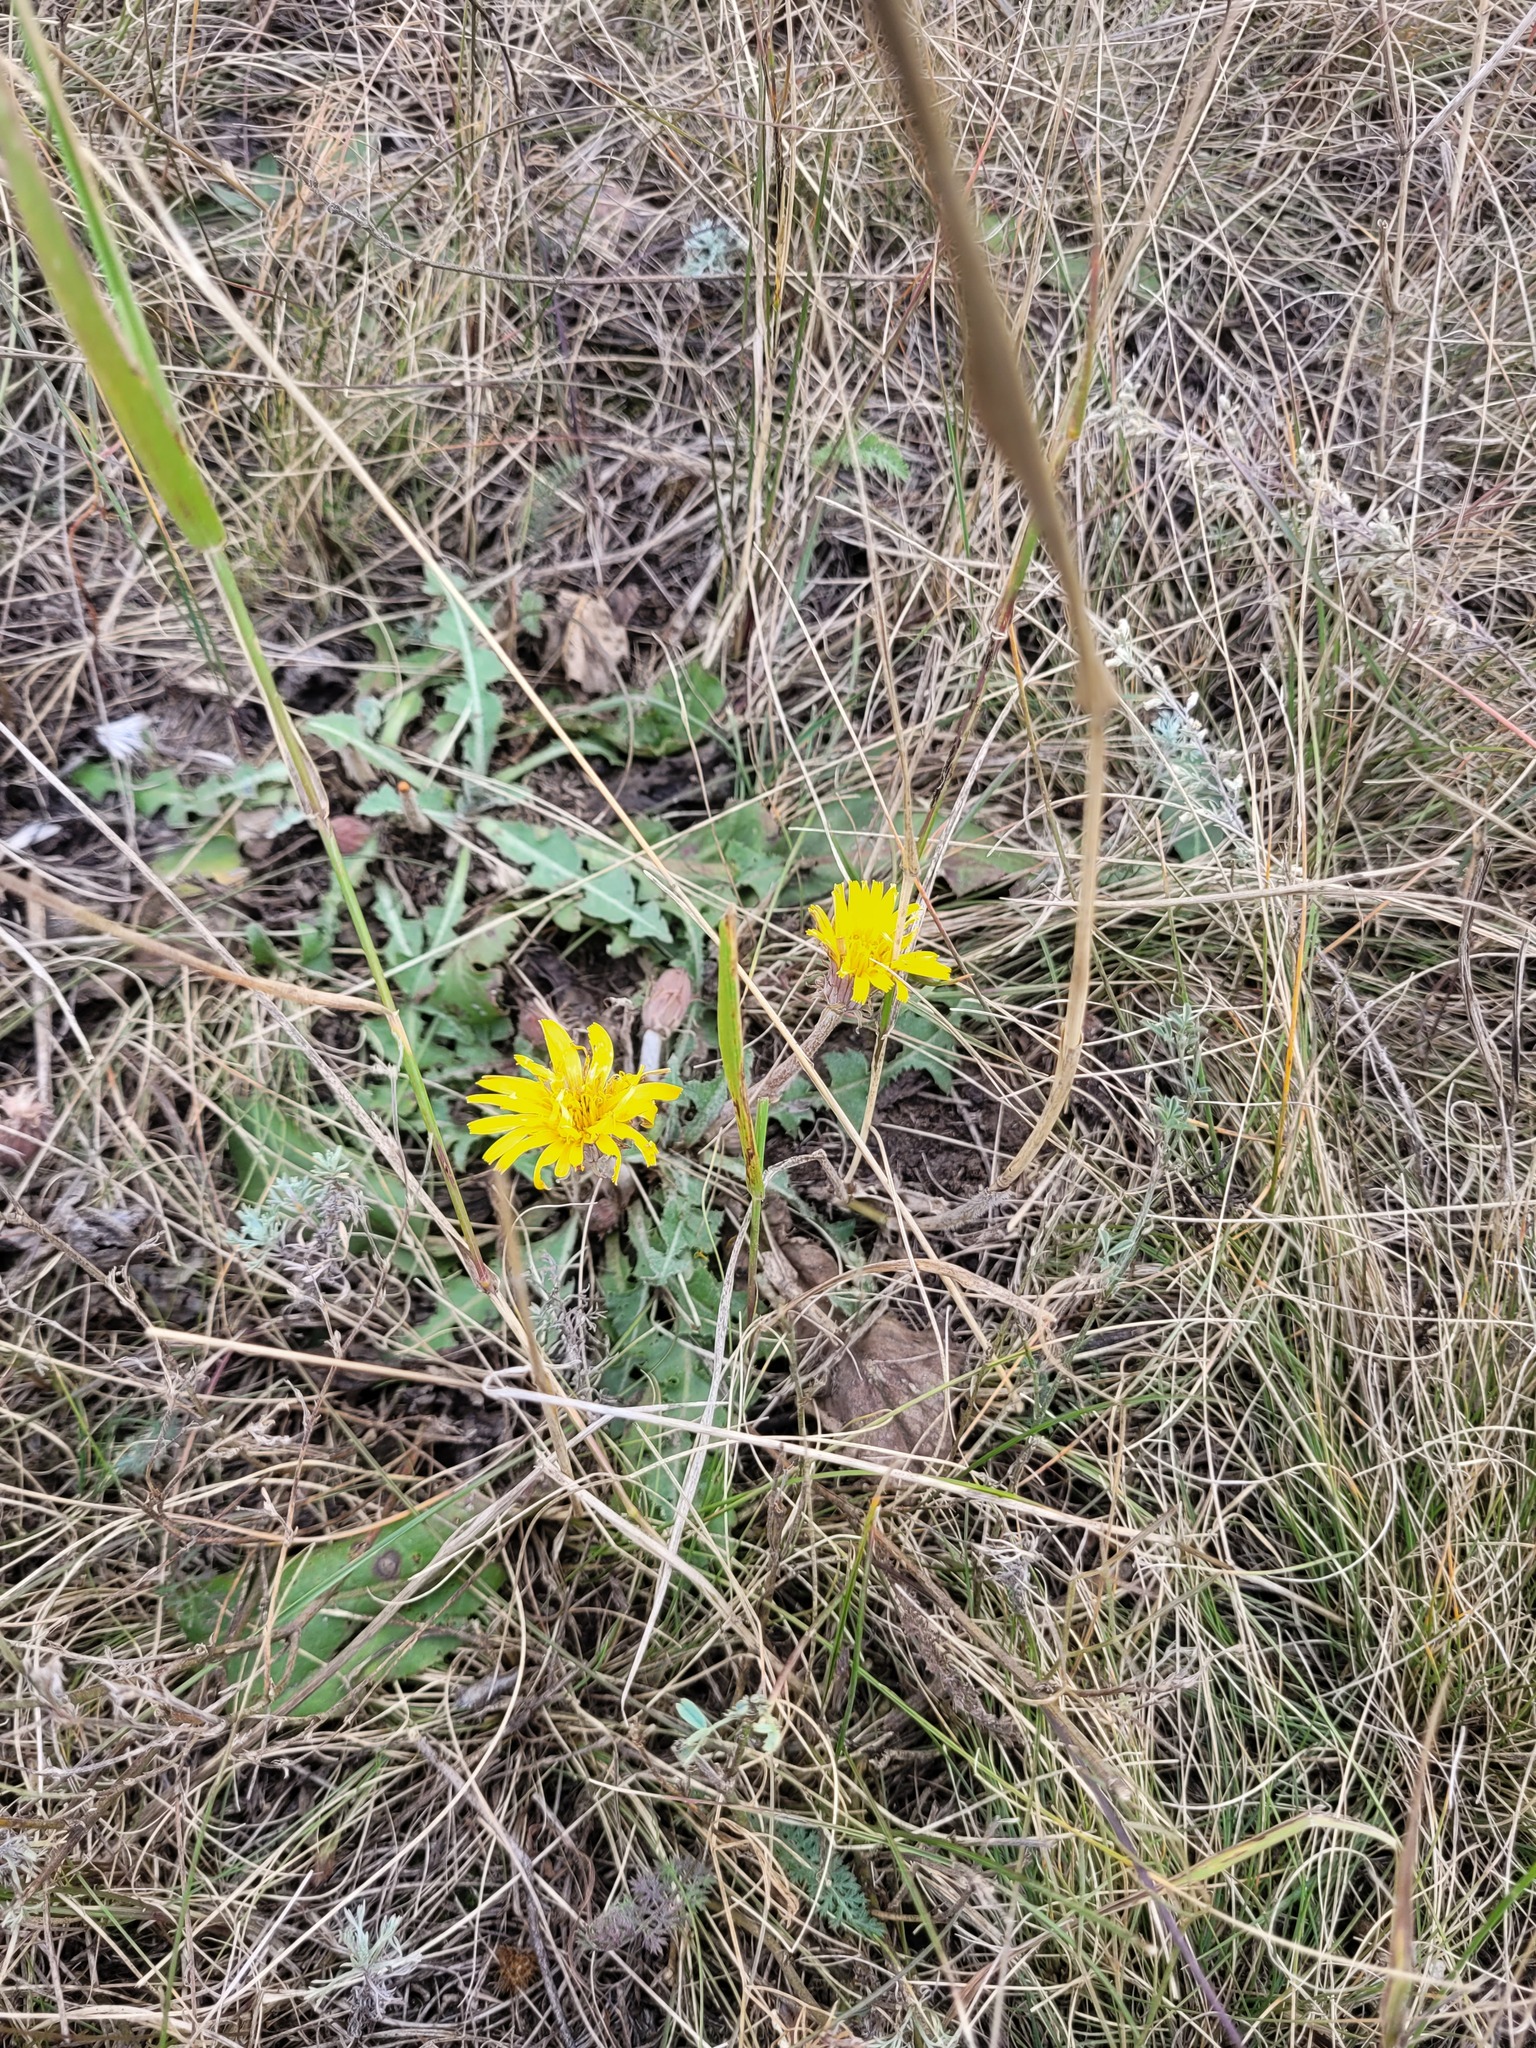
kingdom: Plantae
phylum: Tracheophyta
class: Magnoliopsida
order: Asterales
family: Asteraceae
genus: Taraxacum
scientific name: Taraxacum serotinum
